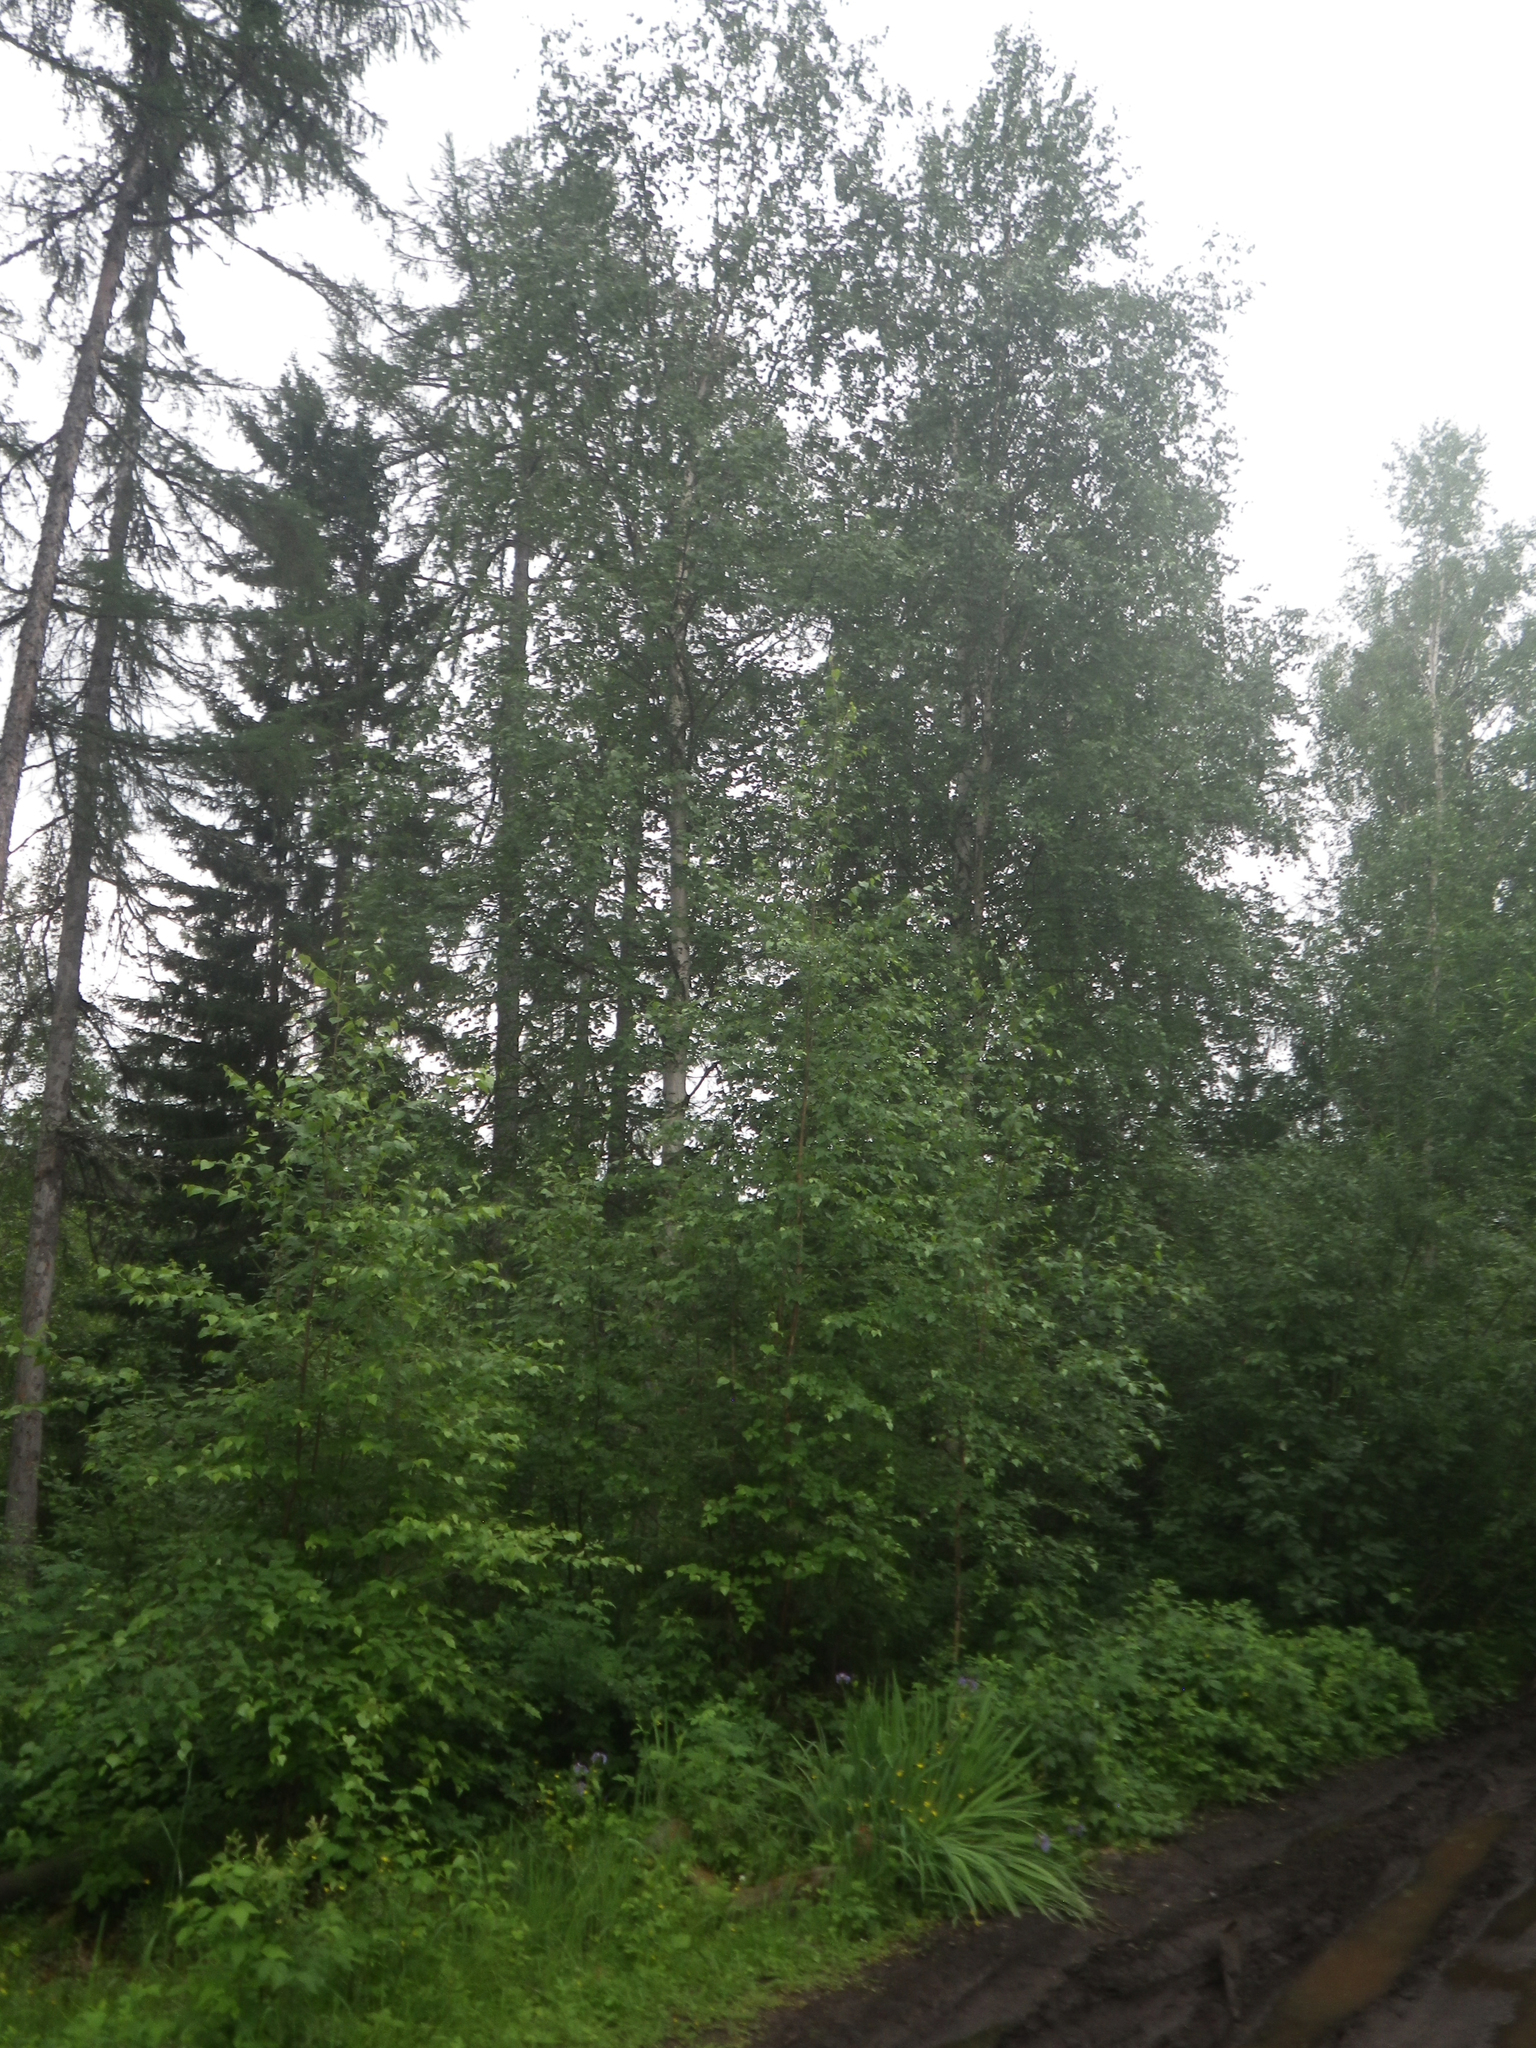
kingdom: Plantae
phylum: Tracheophyta
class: Magnoliopsida
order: Malpighiales
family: Salicaceae
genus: Populus
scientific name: Populus tremula
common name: European aspen
